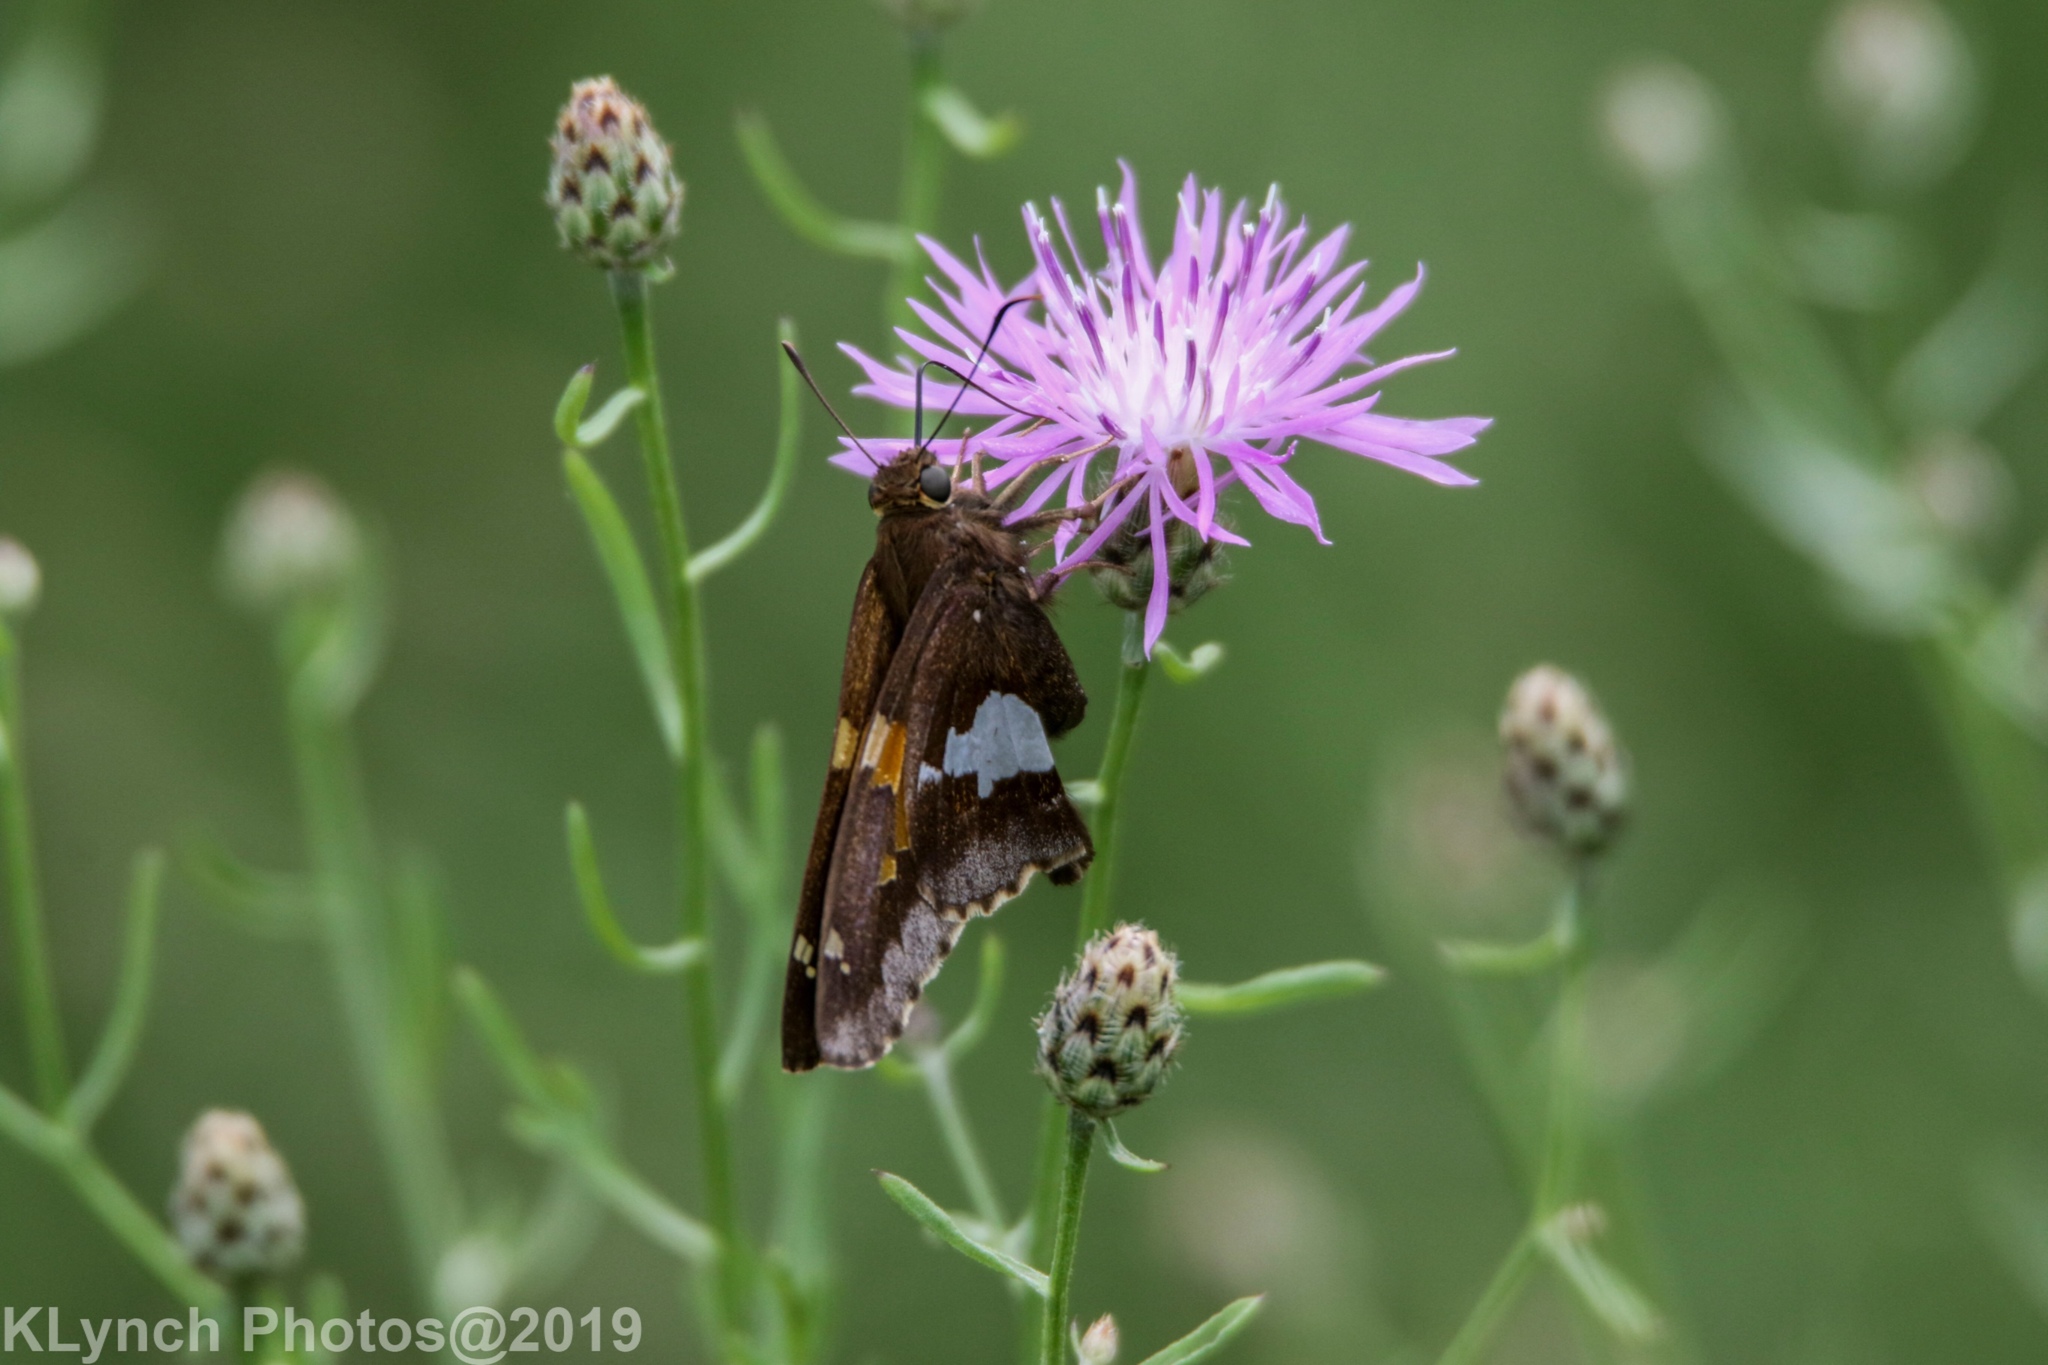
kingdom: Animalia
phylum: Arthropoda
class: Insecta
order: Lepidoptera
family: Hesperiidae
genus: Epargyreus
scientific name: Epargyreus clarus
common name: Silver-spotted skipper
